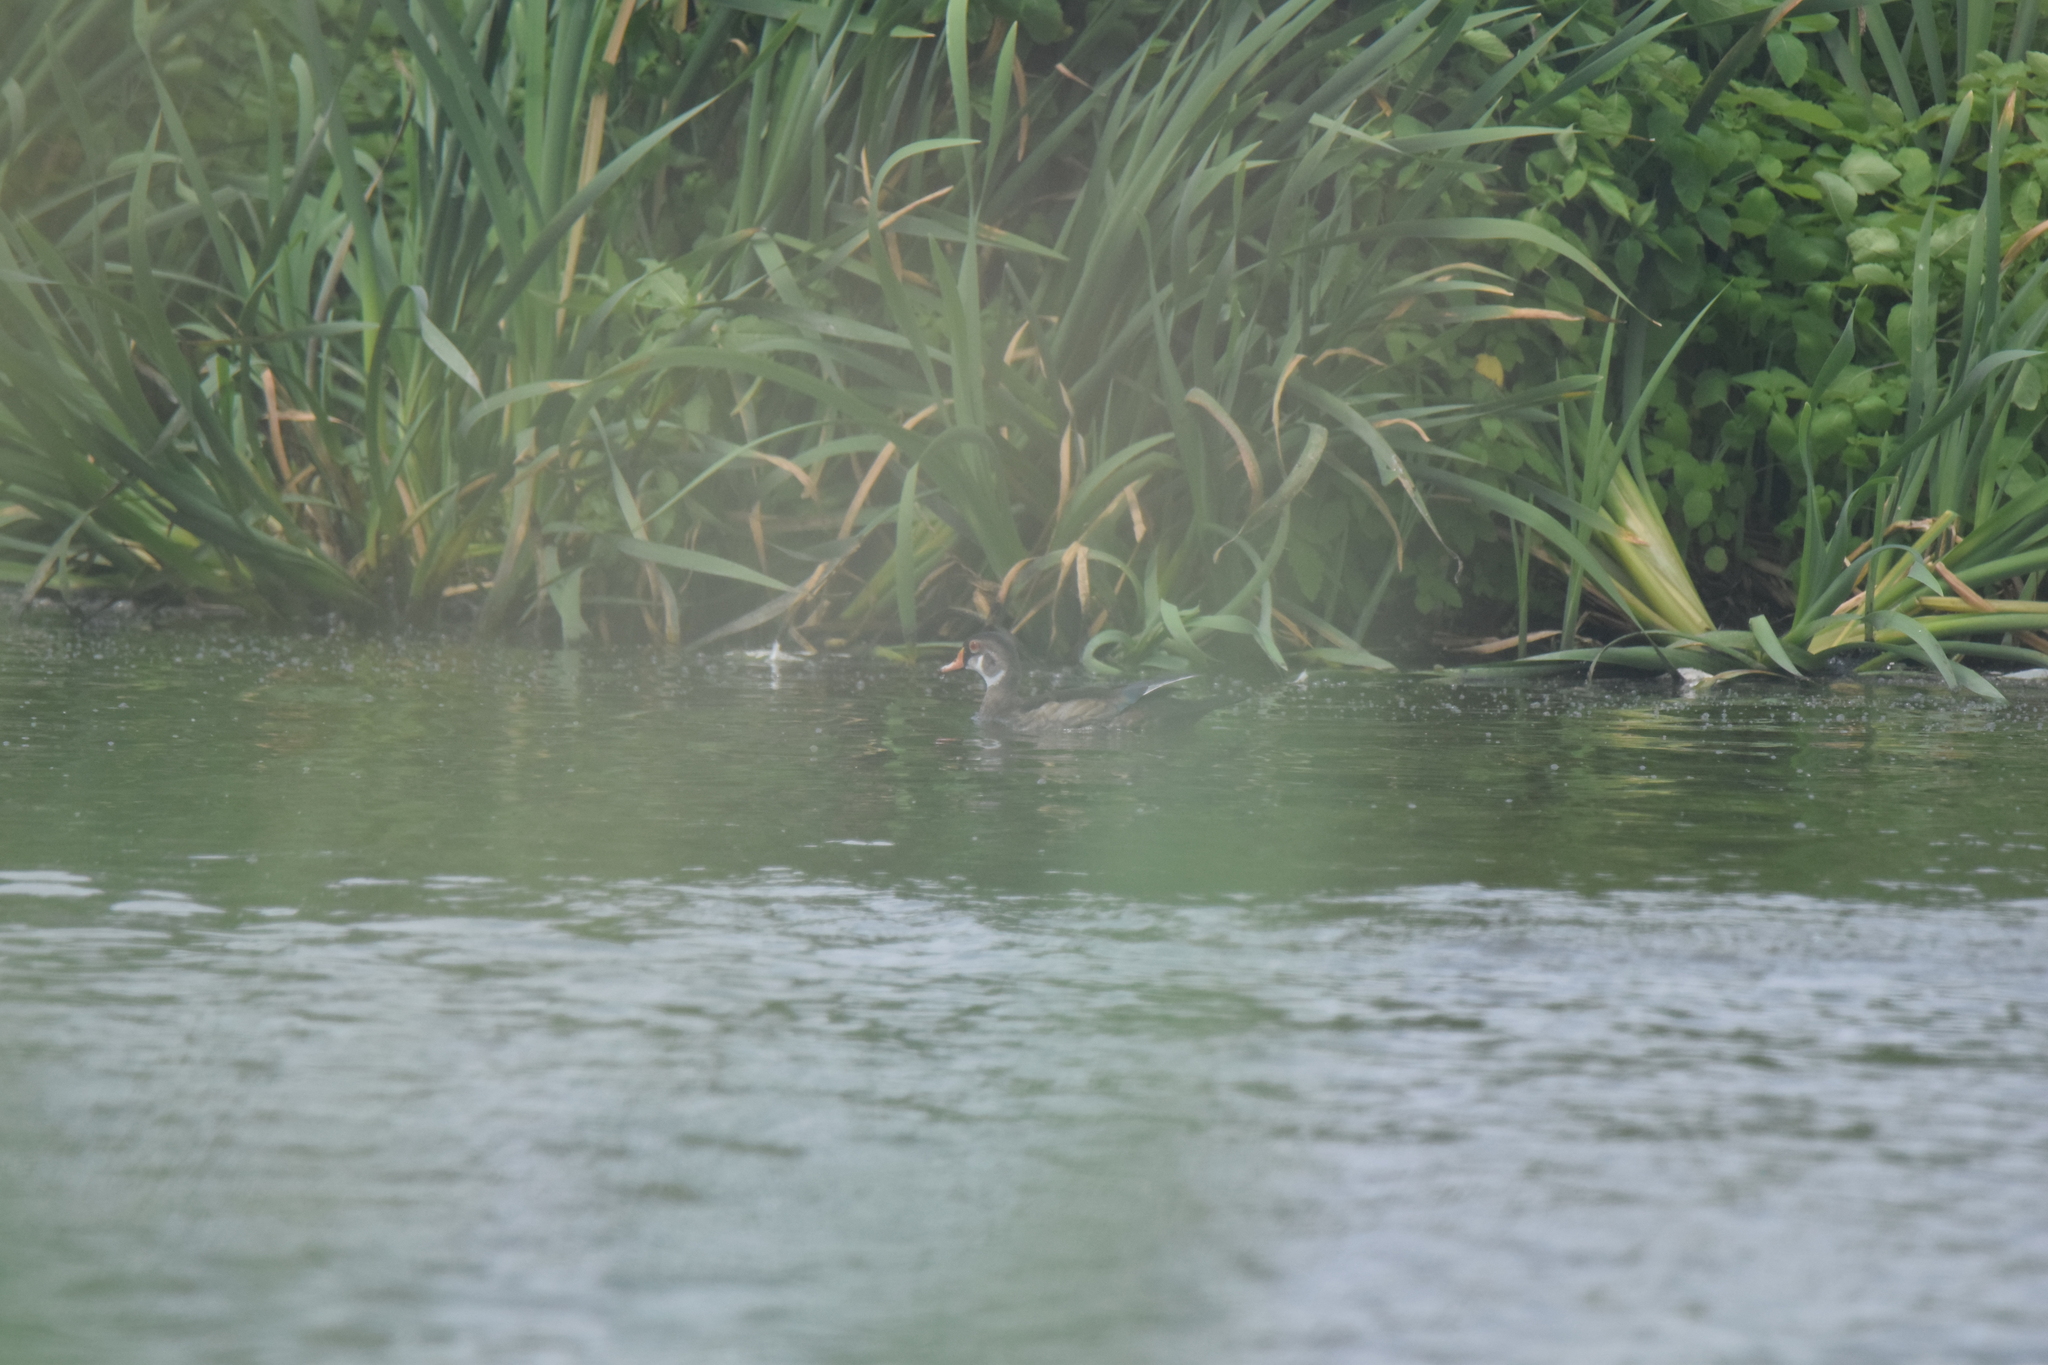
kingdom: Animalia
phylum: Chordata
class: Aves
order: Anseriformes
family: Anatidae
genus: Aix
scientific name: Aix sponsa
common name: Wood duck
